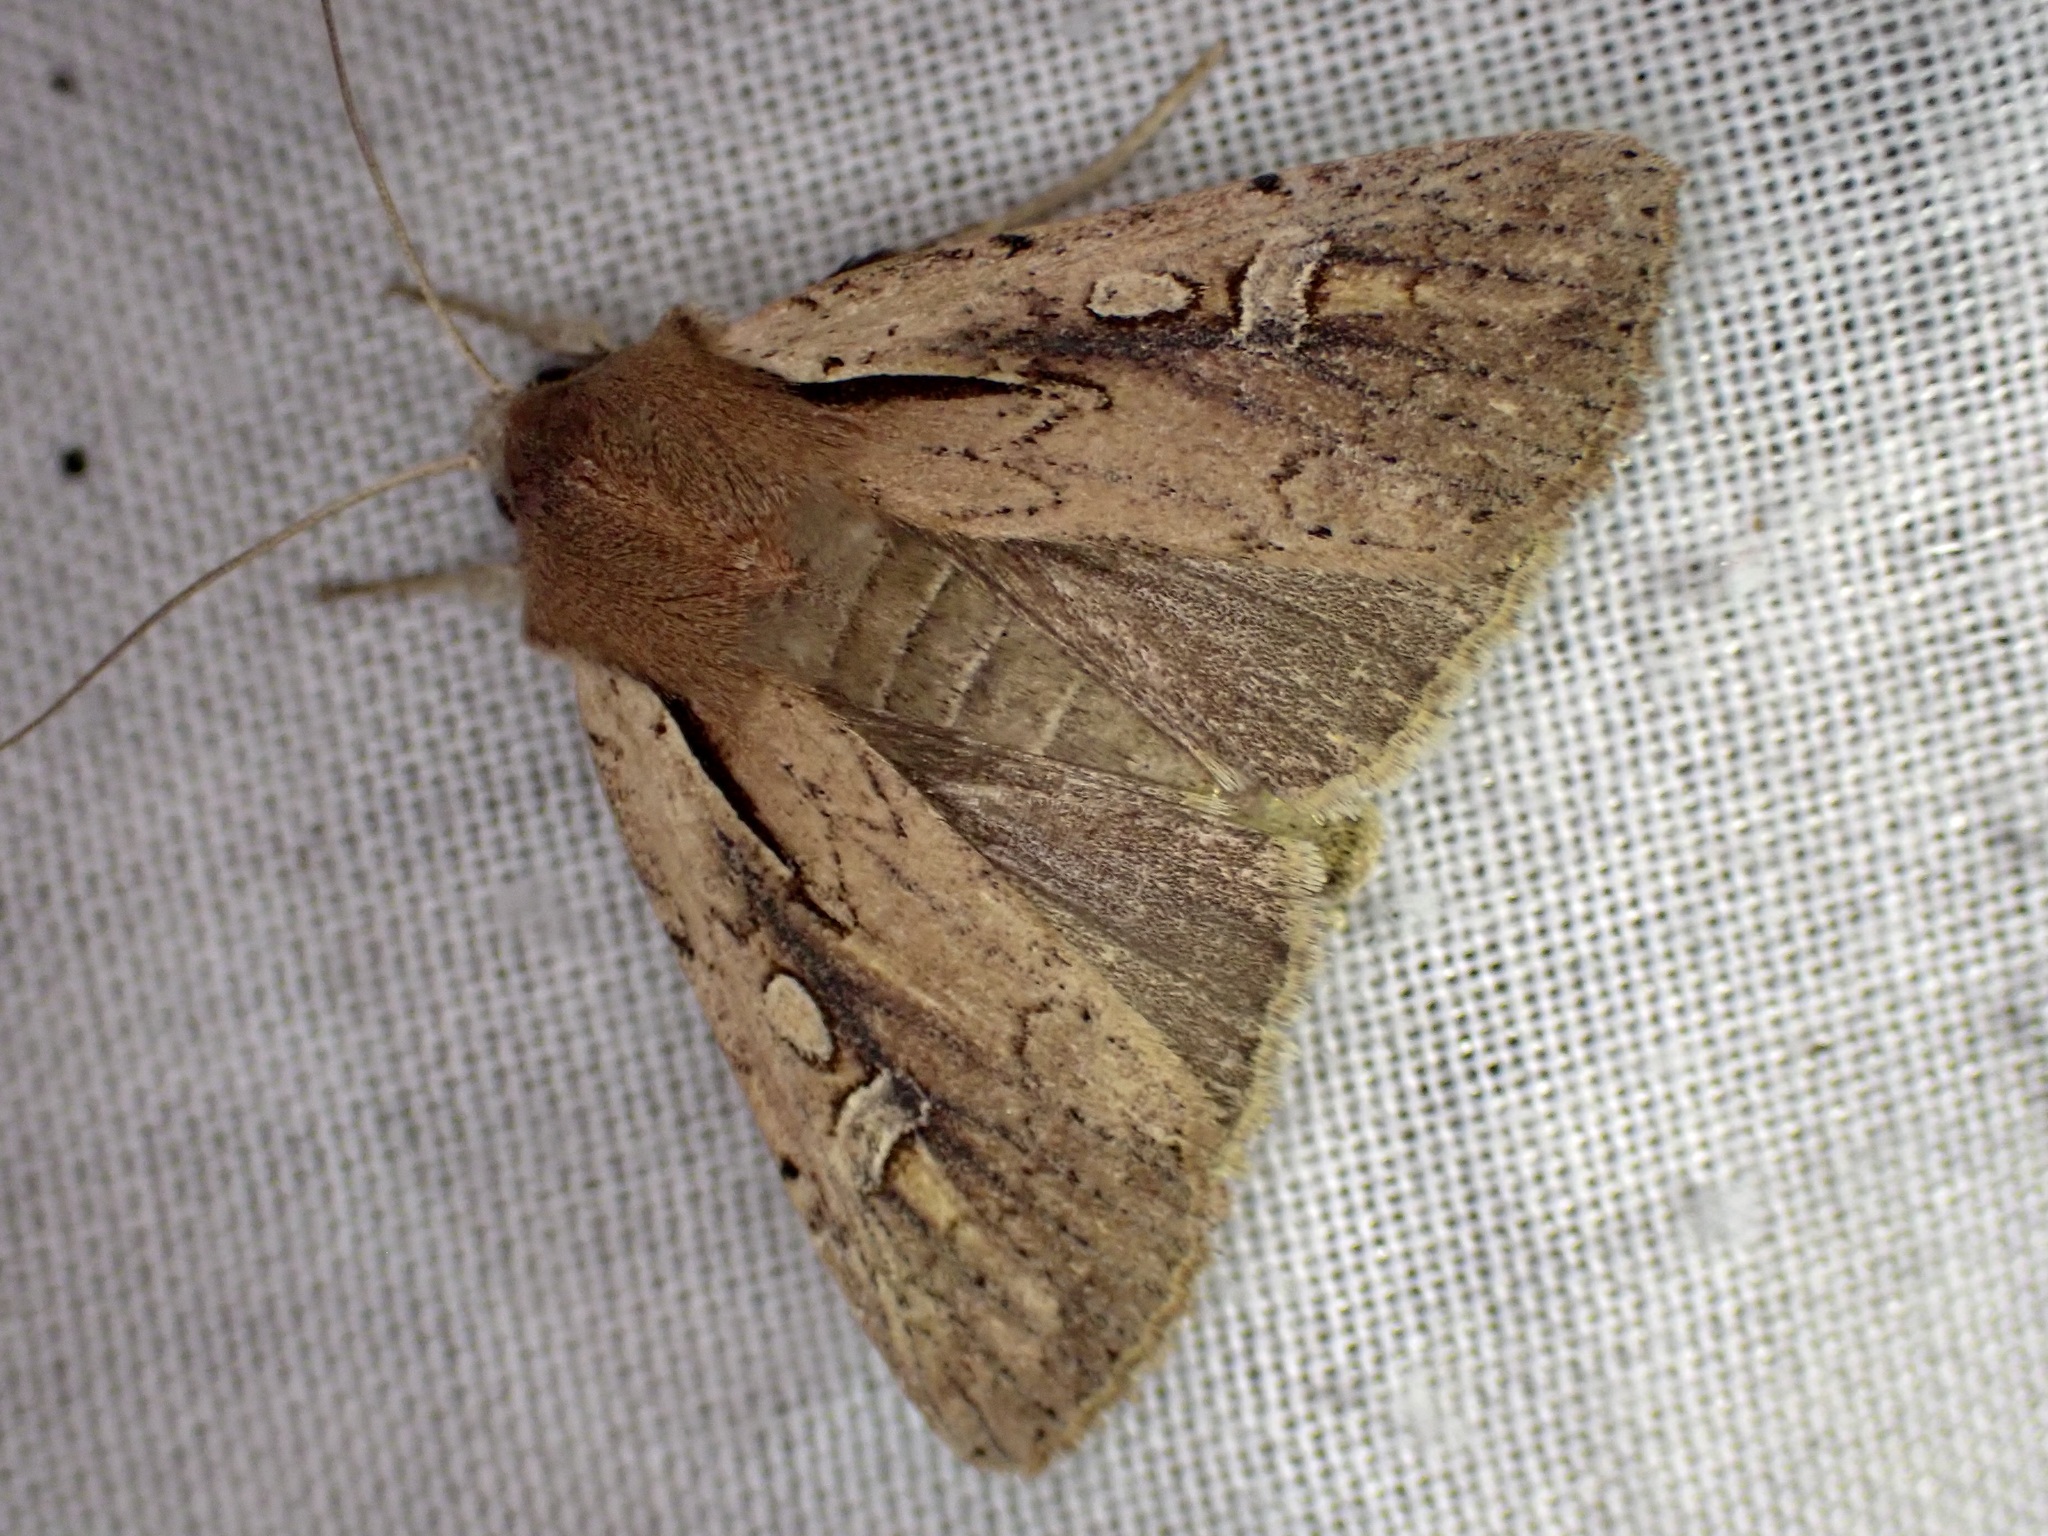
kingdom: Animalia
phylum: Arthropoda
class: Insecta
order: Lepidoptera
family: Noctuidae
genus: Ichneutica
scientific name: Ichneutica atristriga
